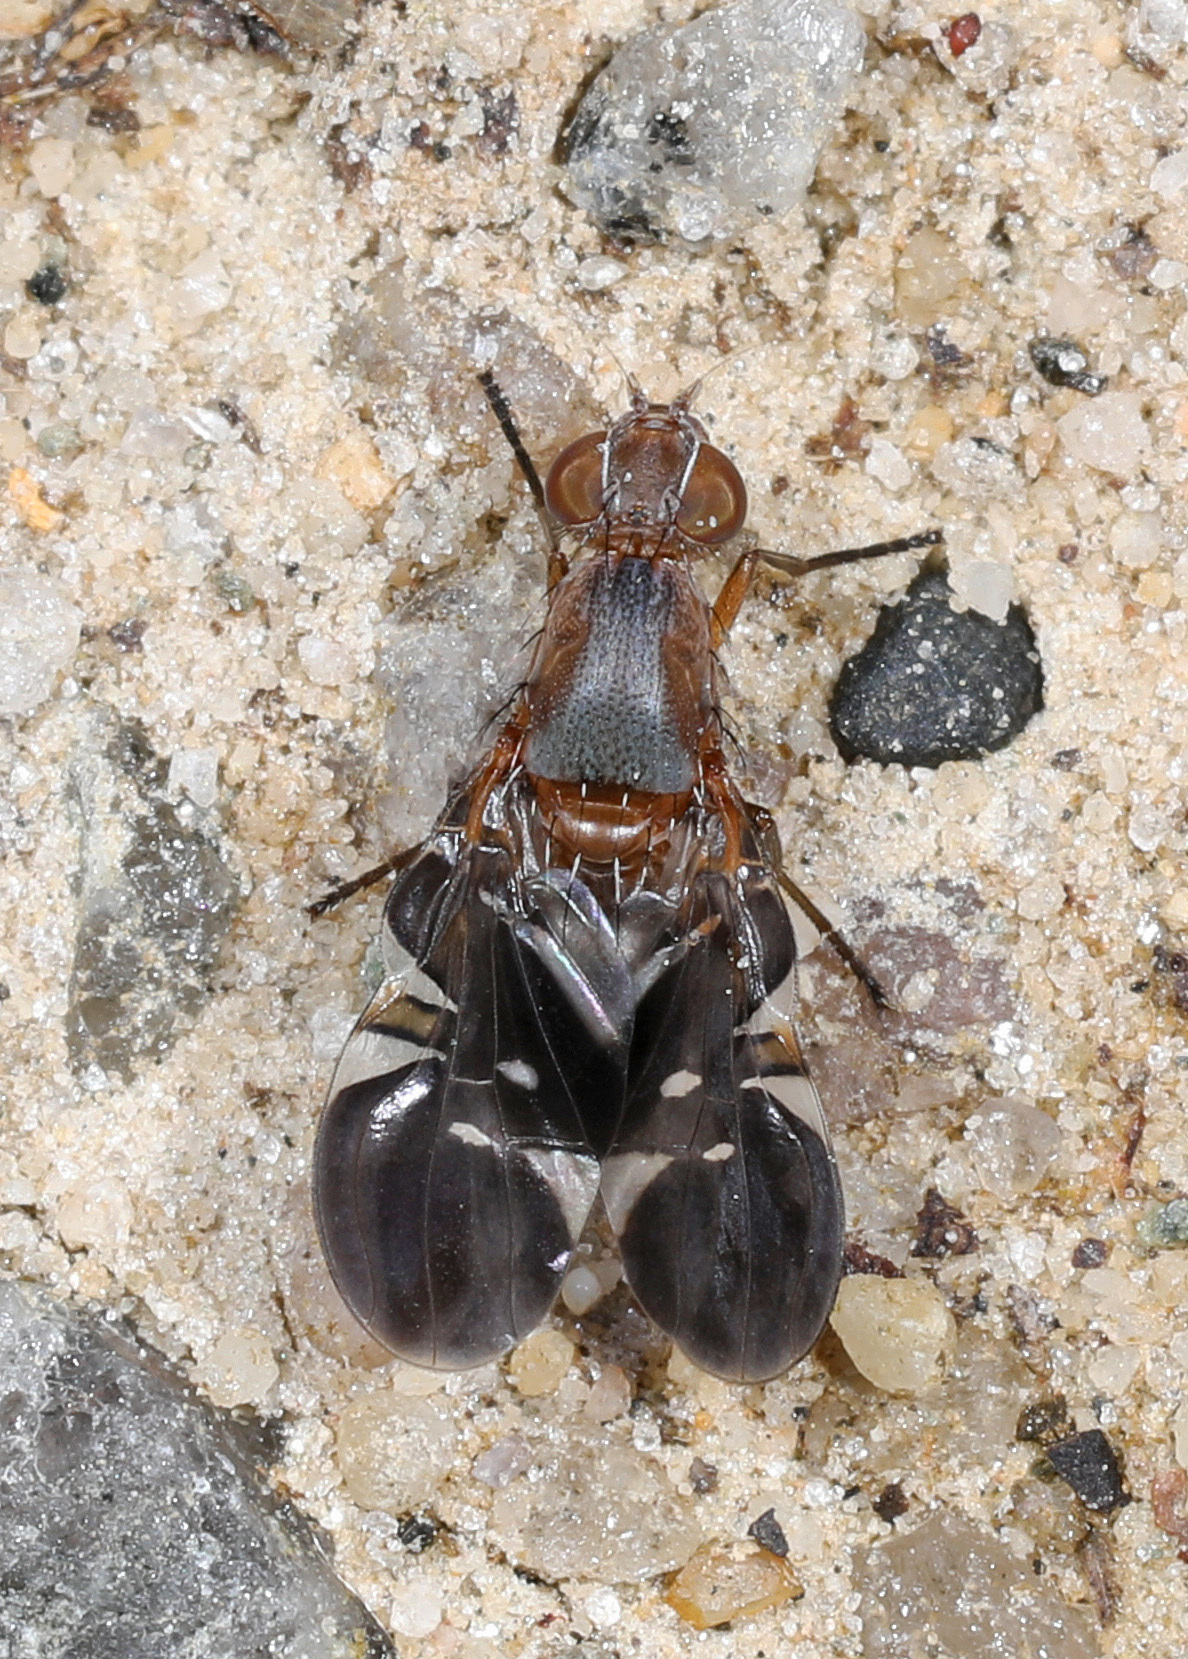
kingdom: Animalia
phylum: Arthropoda
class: Insecta
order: Diptera
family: Ulidiidae
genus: Delphinia
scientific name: Delphinia picta
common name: Common picture-winged fly
